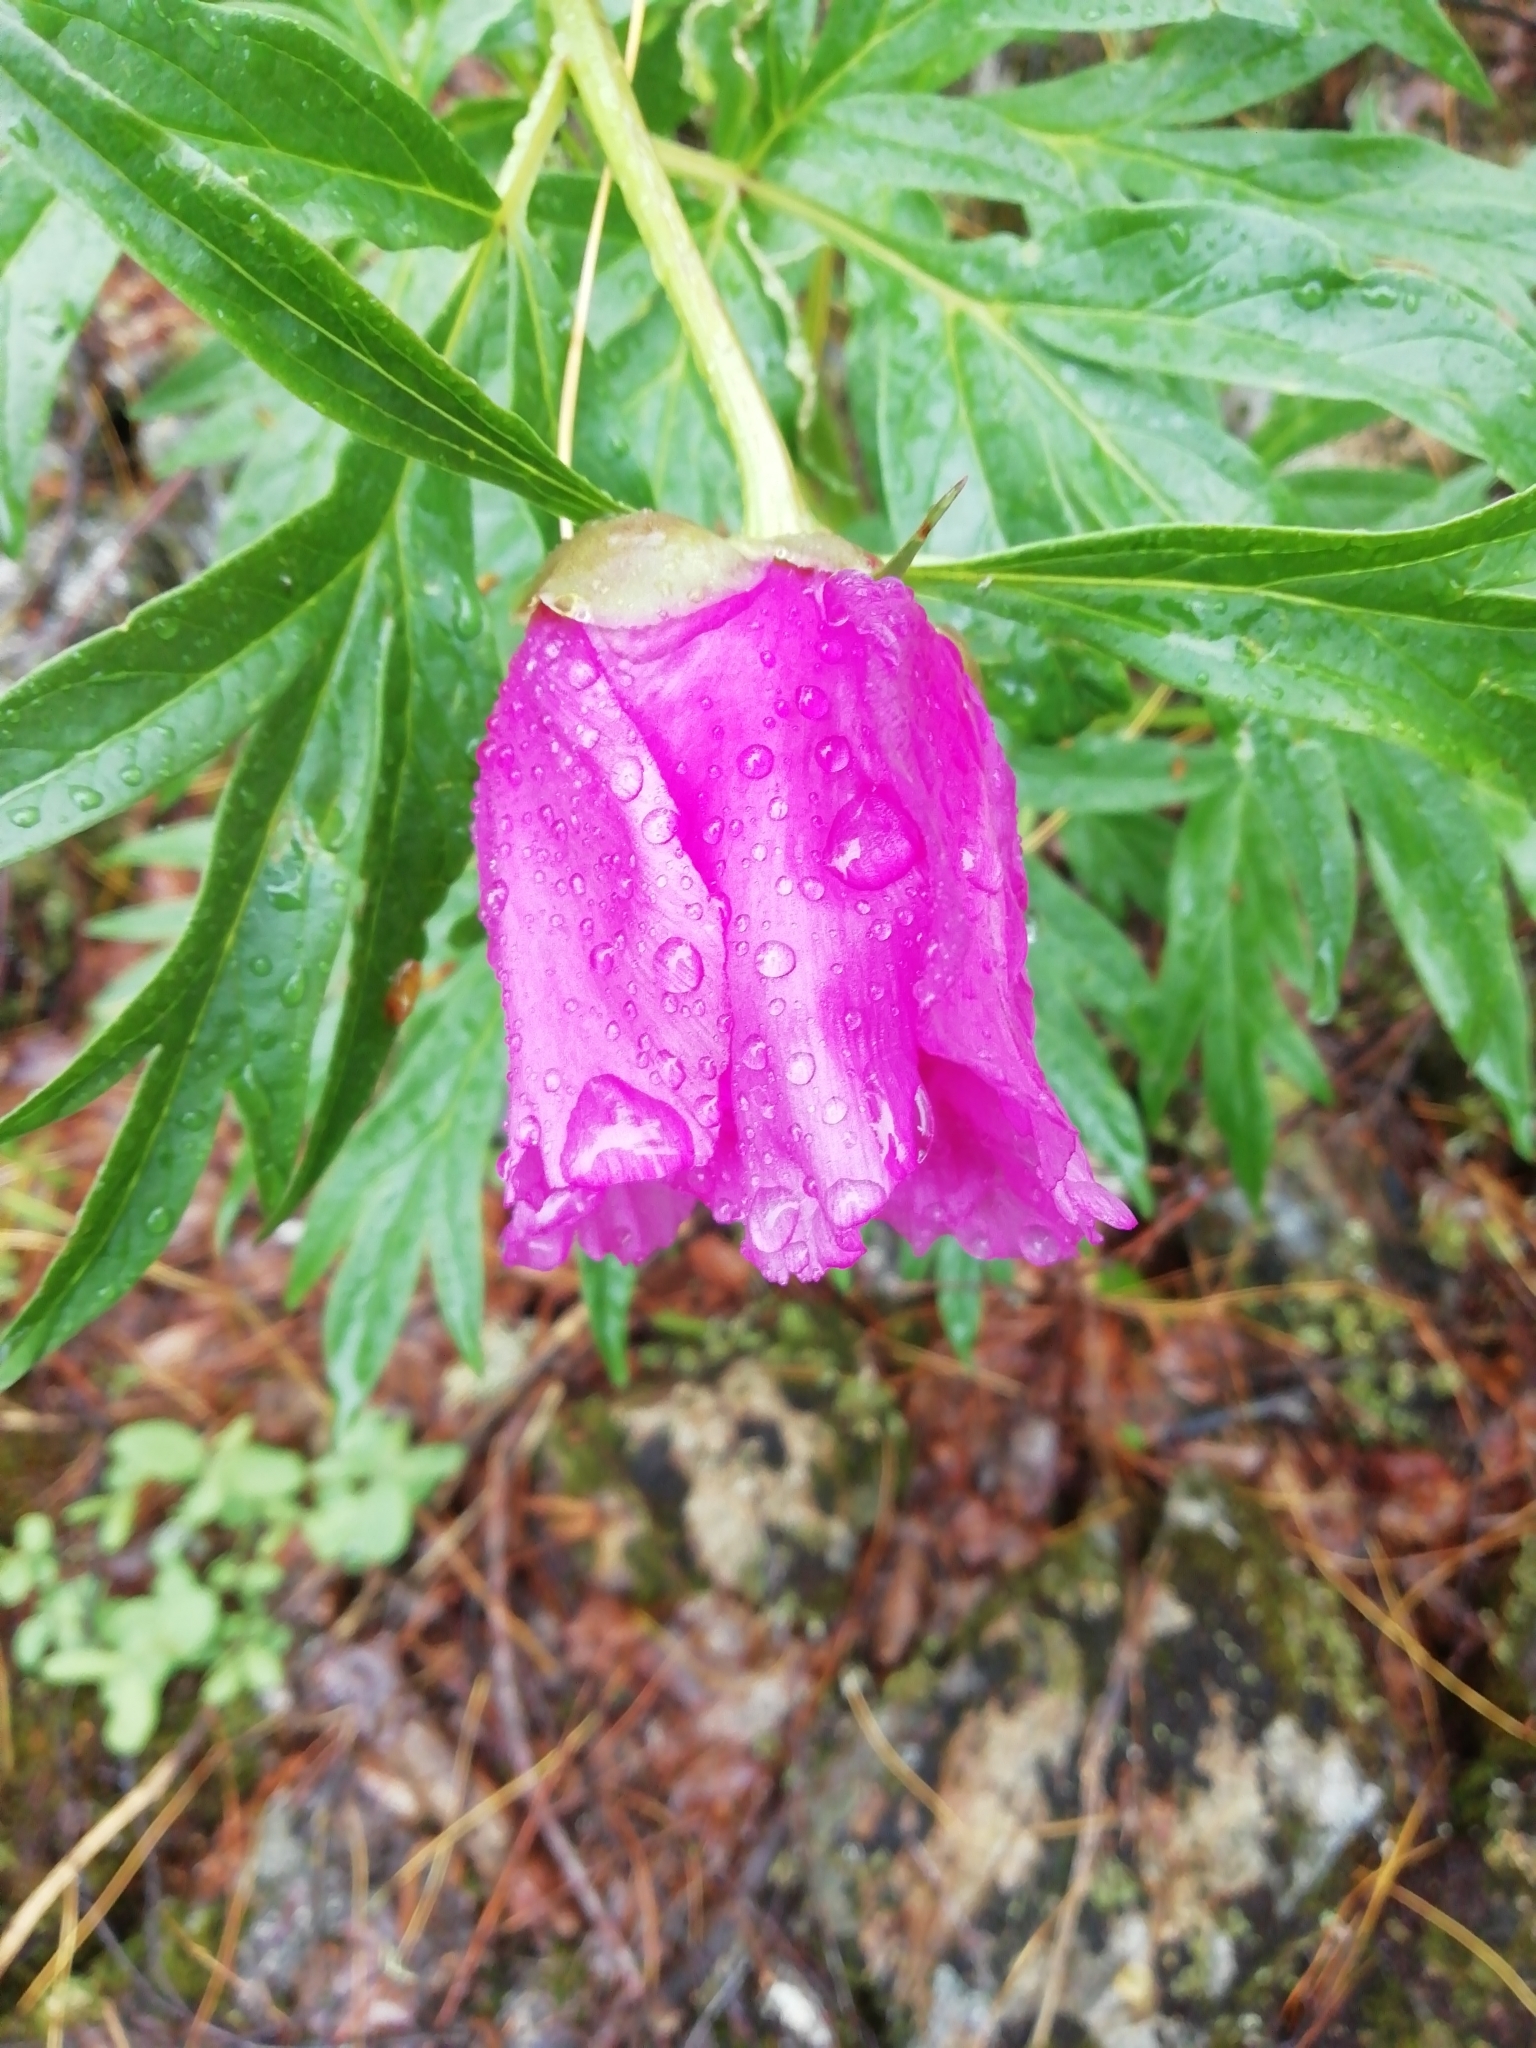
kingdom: Plantae
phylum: Tracheophyta
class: Magnoliopsida
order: Saxifragales
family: Paeoniaceae
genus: Paeonia
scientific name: Paeonia anomala
